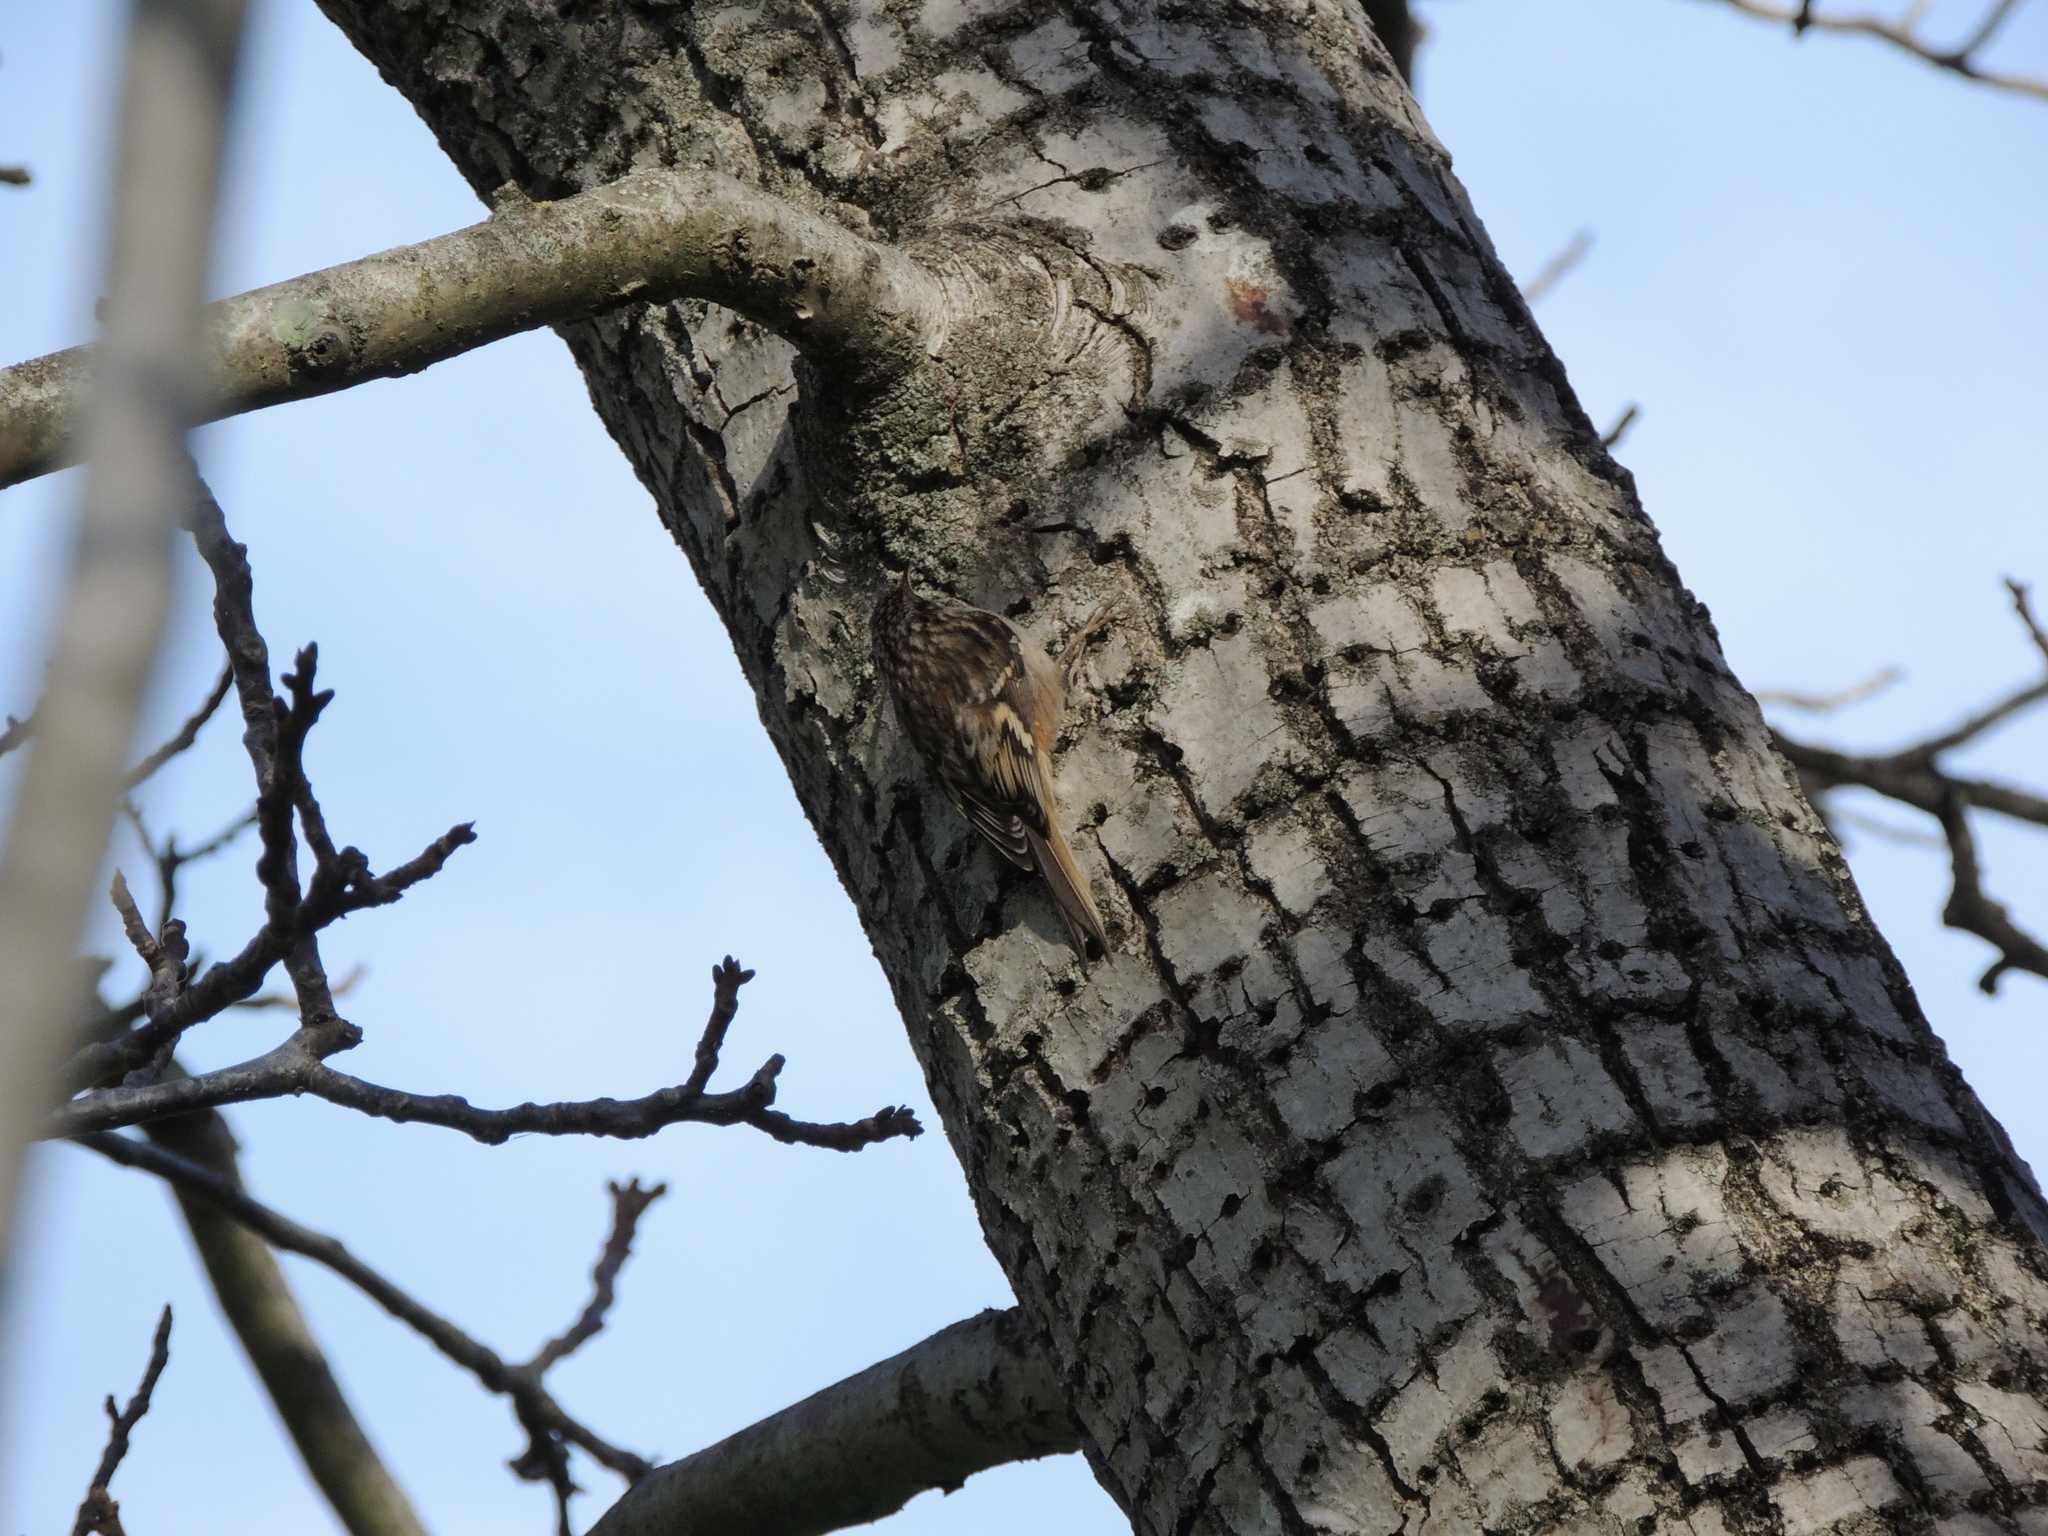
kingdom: Animalia
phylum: Chordata
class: Aves
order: Passeriformes
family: Certhiidae
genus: Certhia
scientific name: Certhia americana
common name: Brown creeper
